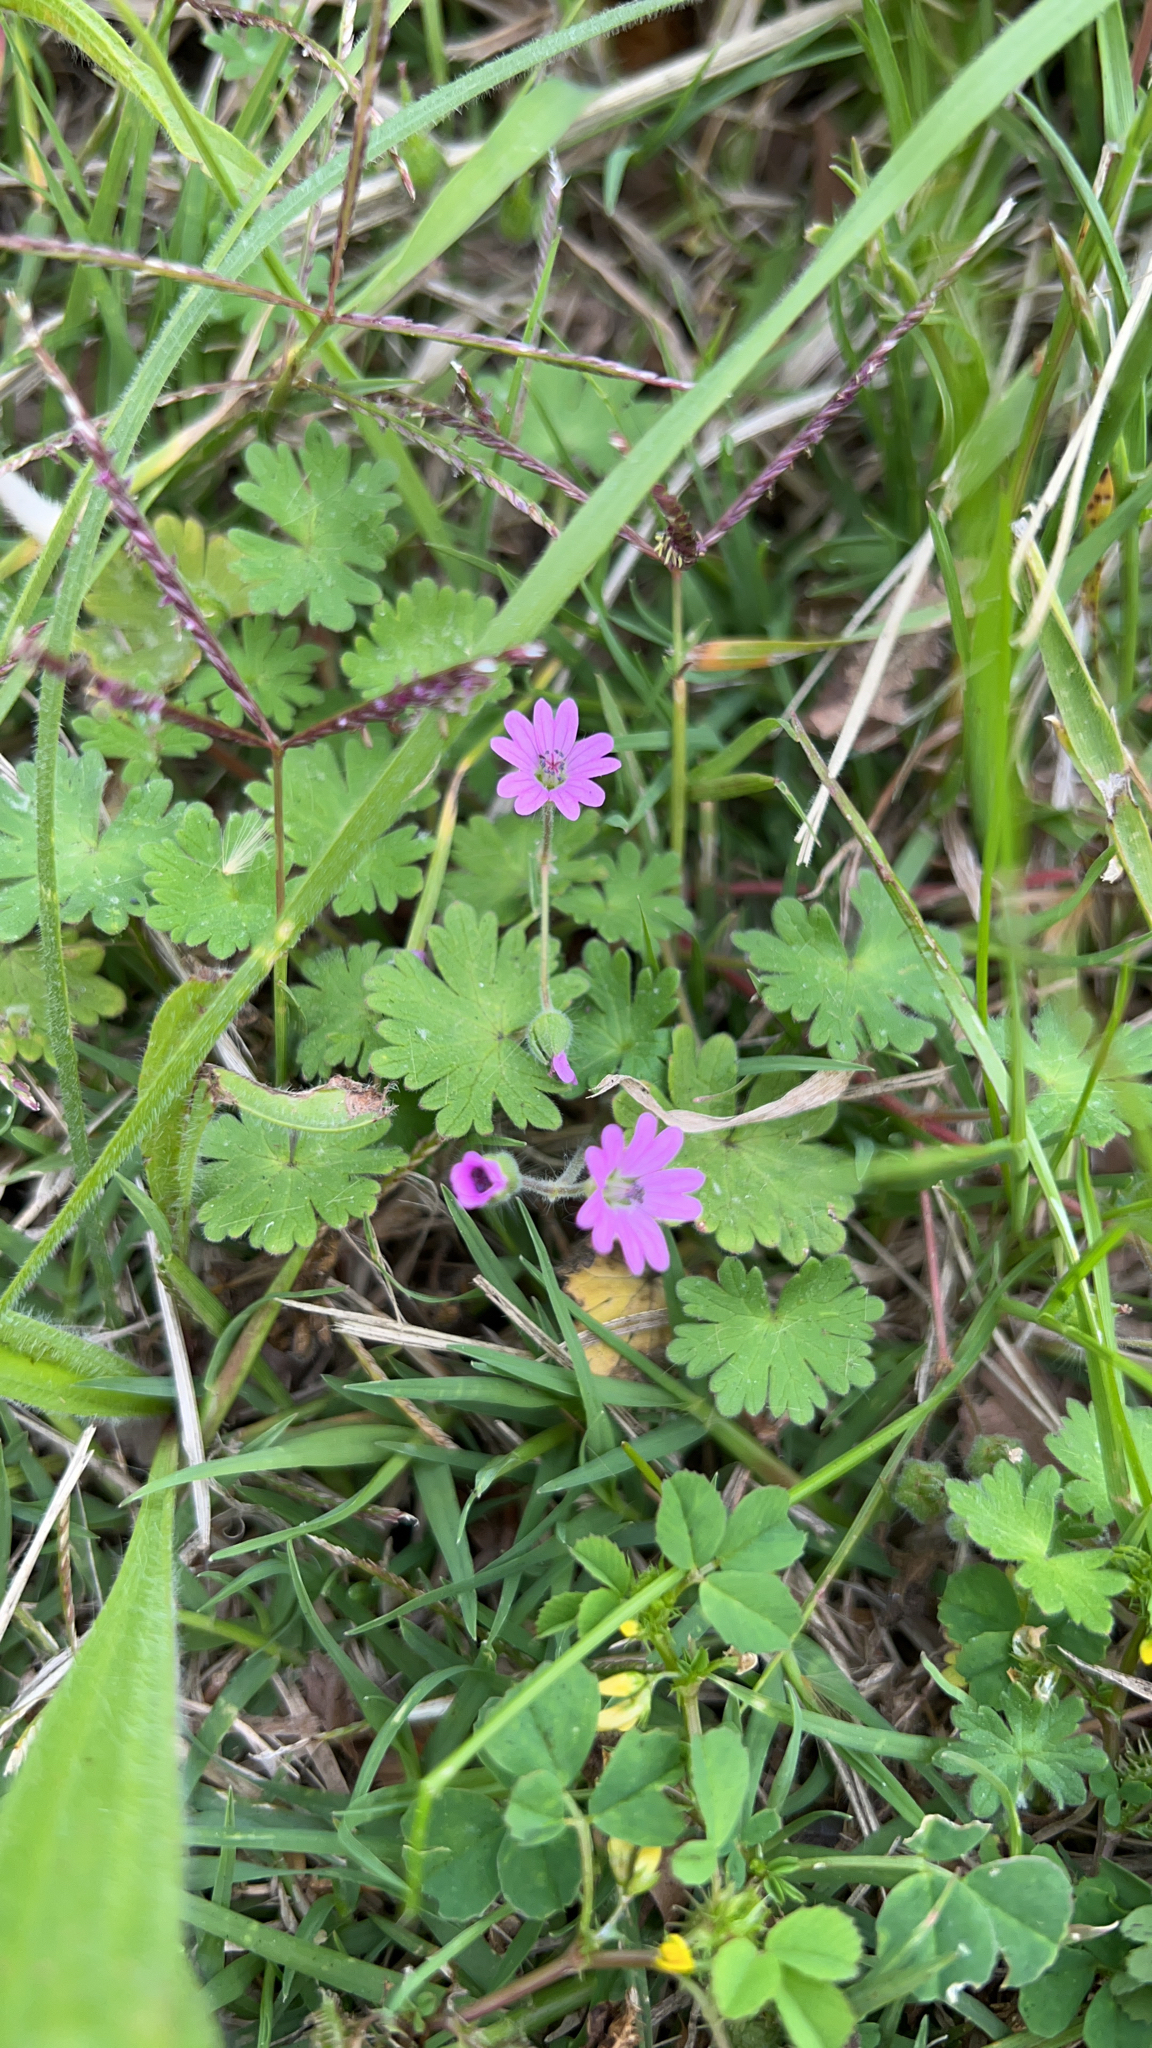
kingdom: Plantae
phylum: Tracheophyta
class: Magnoliopsida
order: Geraniales
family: Geraniaceae
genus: Geranium
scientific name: Geranium molle
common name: Dove's-foot crane's-bill
